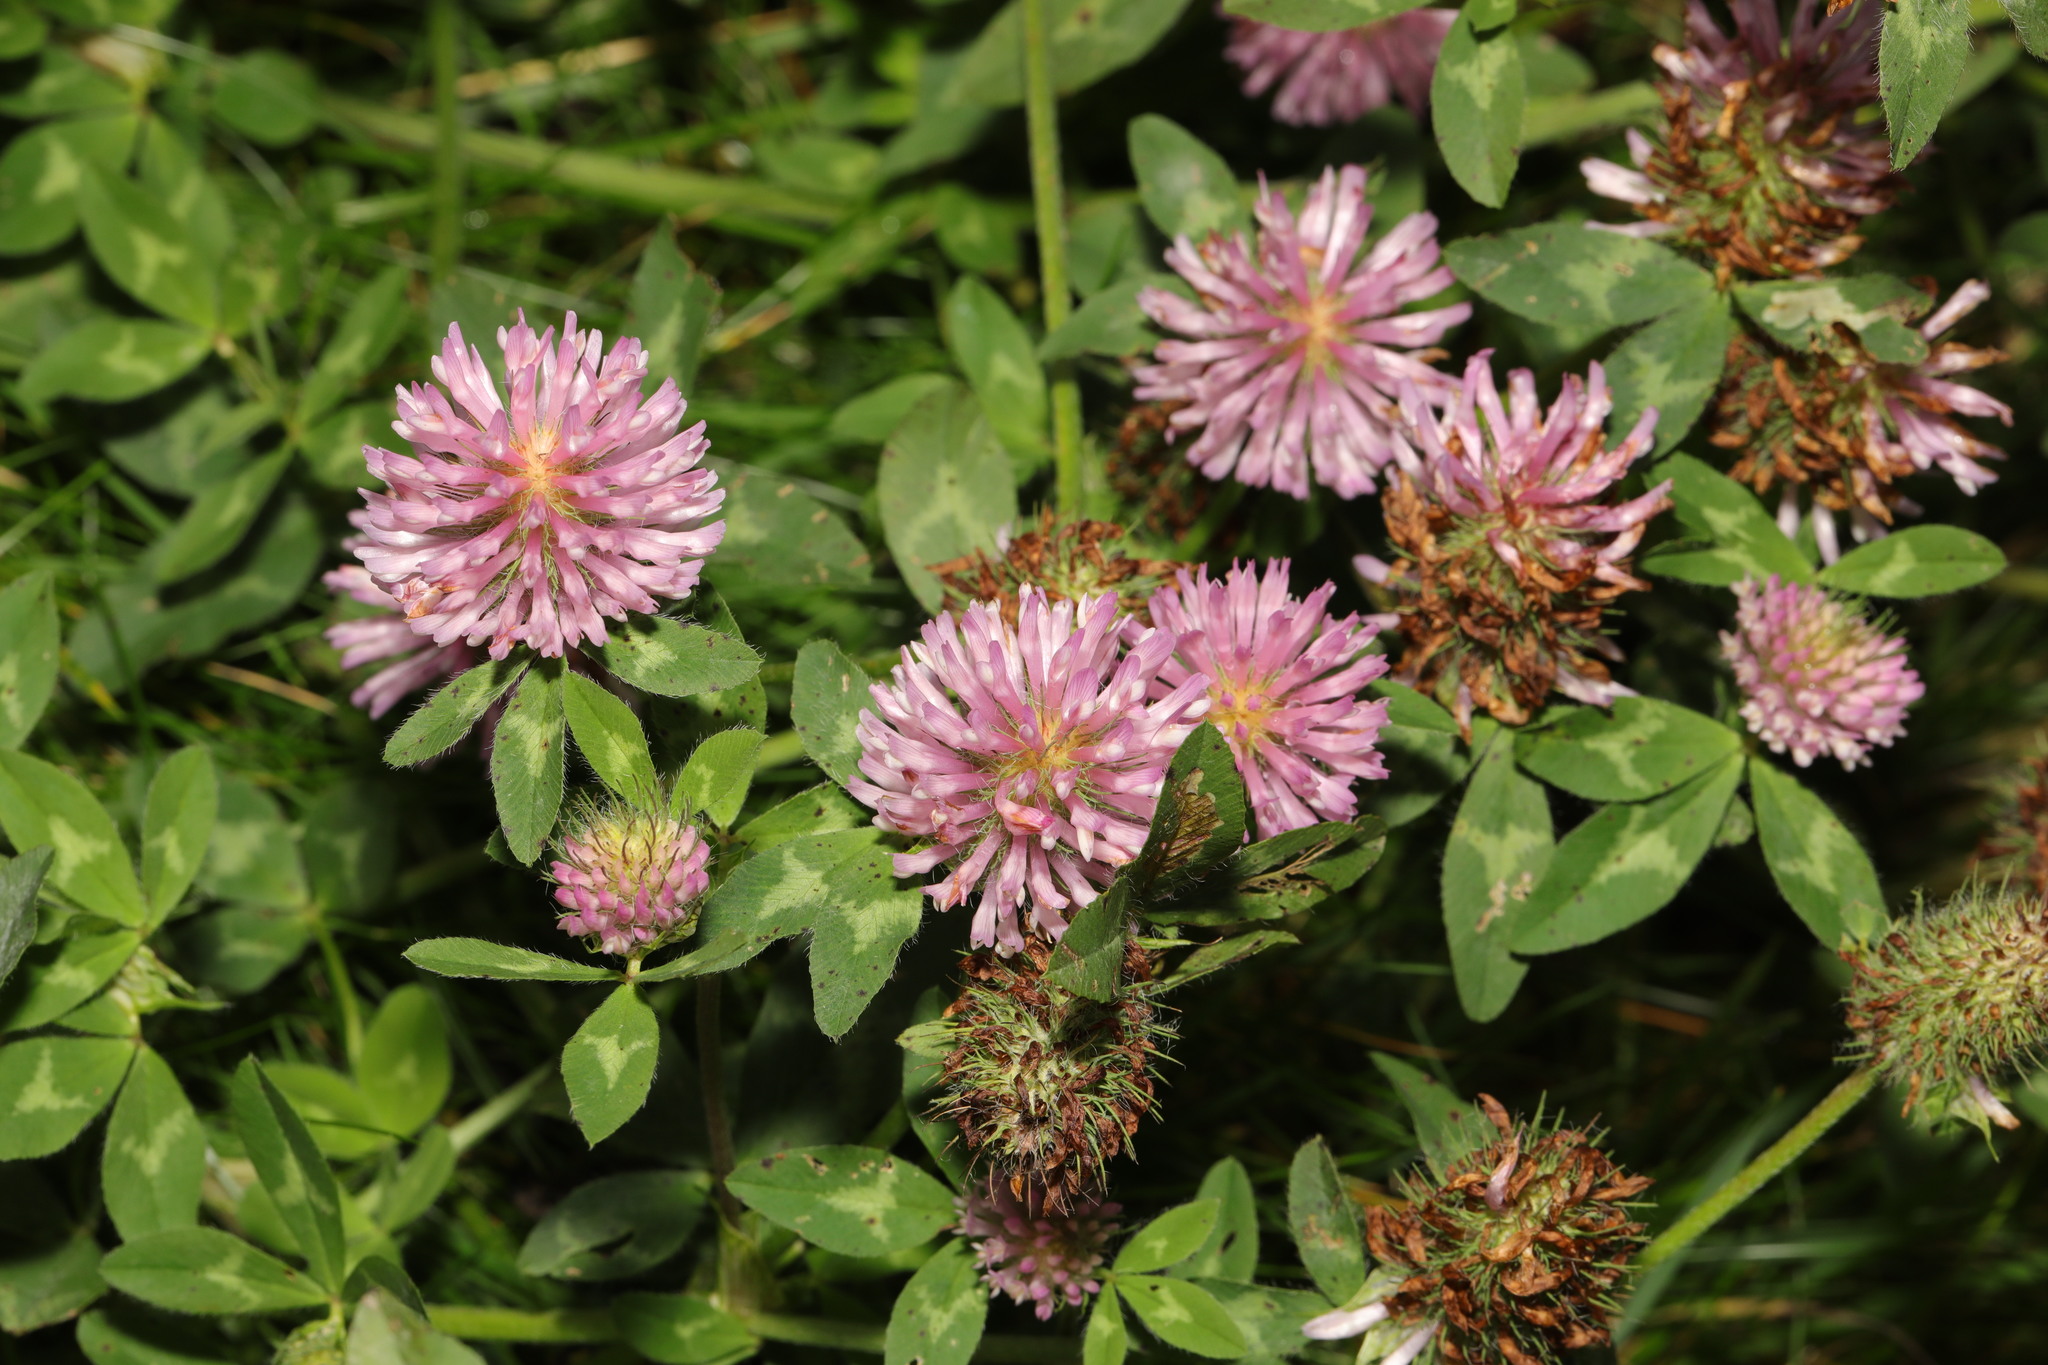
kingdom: Plantae
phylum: Tracheophyta
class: Magnoliopsida
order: Fabales
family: Fabaceae
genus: Trifolium
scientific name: Trifolium pratense
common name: Red clover
